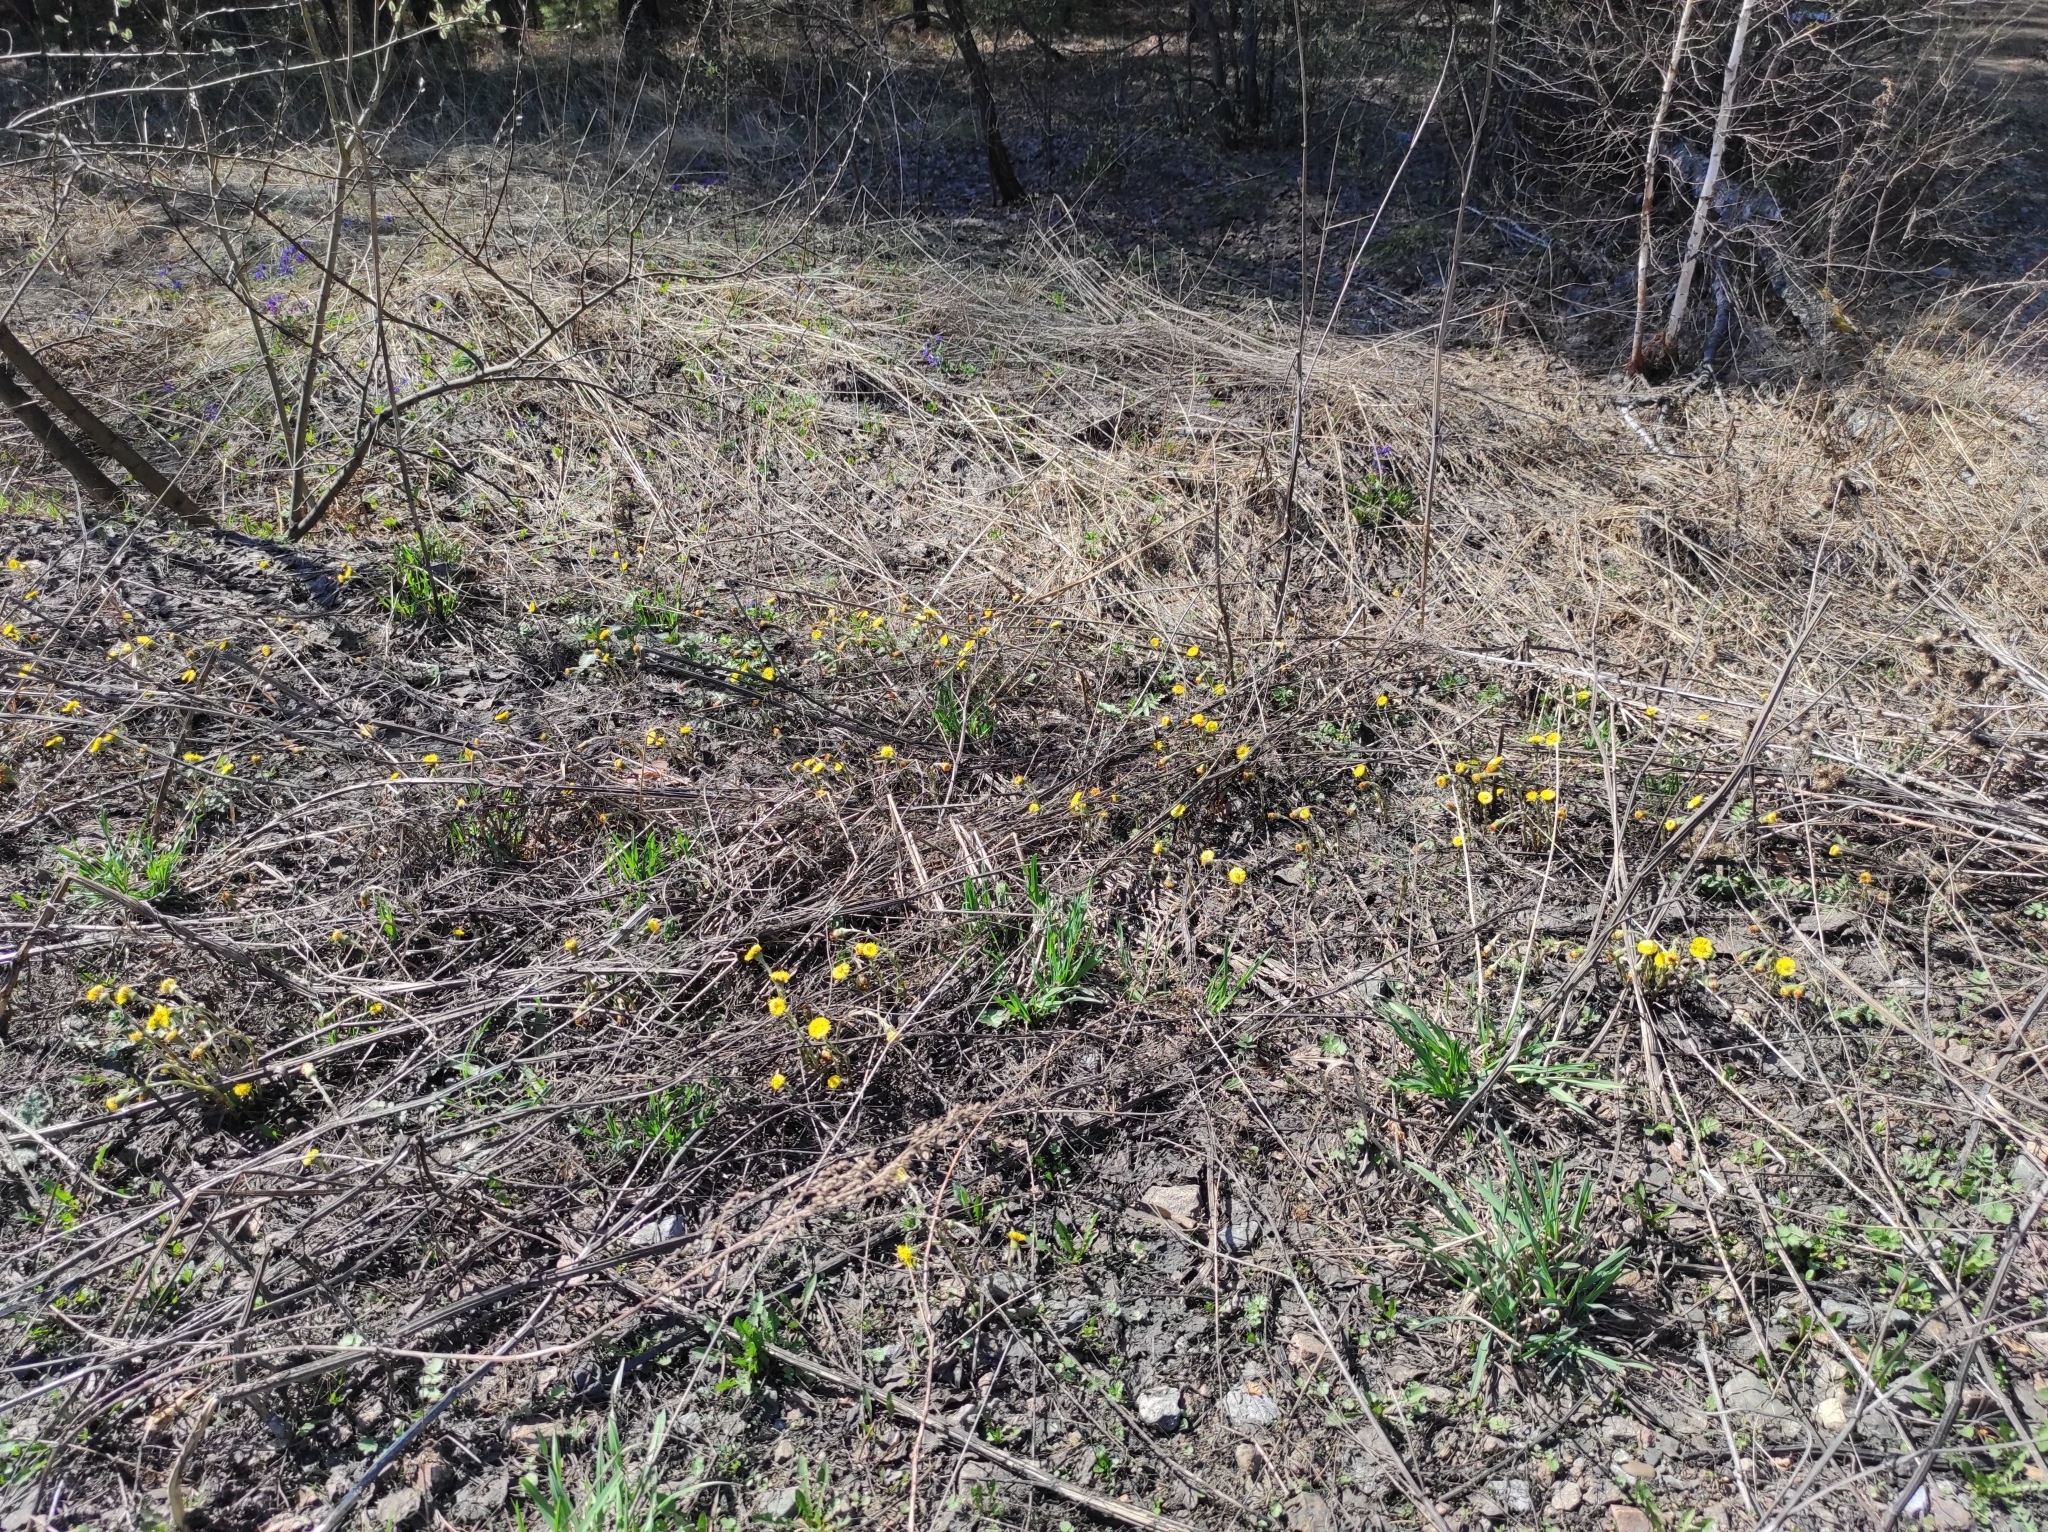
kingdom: Plantae
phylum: Tracheophyta
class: Magnoliopsida
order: Asterales
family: Asteraceae
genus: Tussilago
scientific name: Tussilago farfara
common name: Coltsfoot
